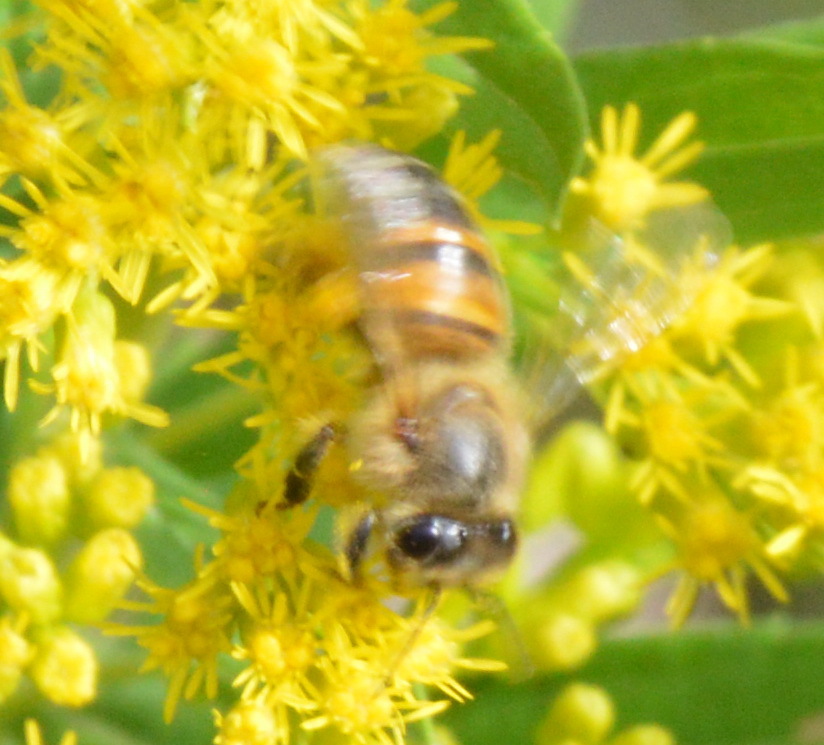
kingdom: Animalia
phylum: Arthropoda
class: Insecta
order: Hymenoptera
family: Apidae
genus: Apis
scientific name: Apis mellifera
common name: Honey bee
